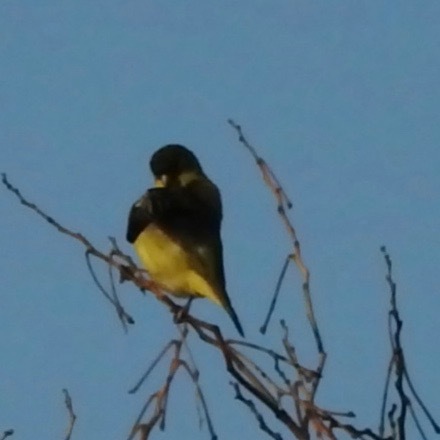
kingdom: Animalia
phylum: Chordata
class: Aves
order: Passeriformes
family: Fringillidae
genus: Spinus
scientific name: Spinus psaltria
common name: Lesser goldfinch
